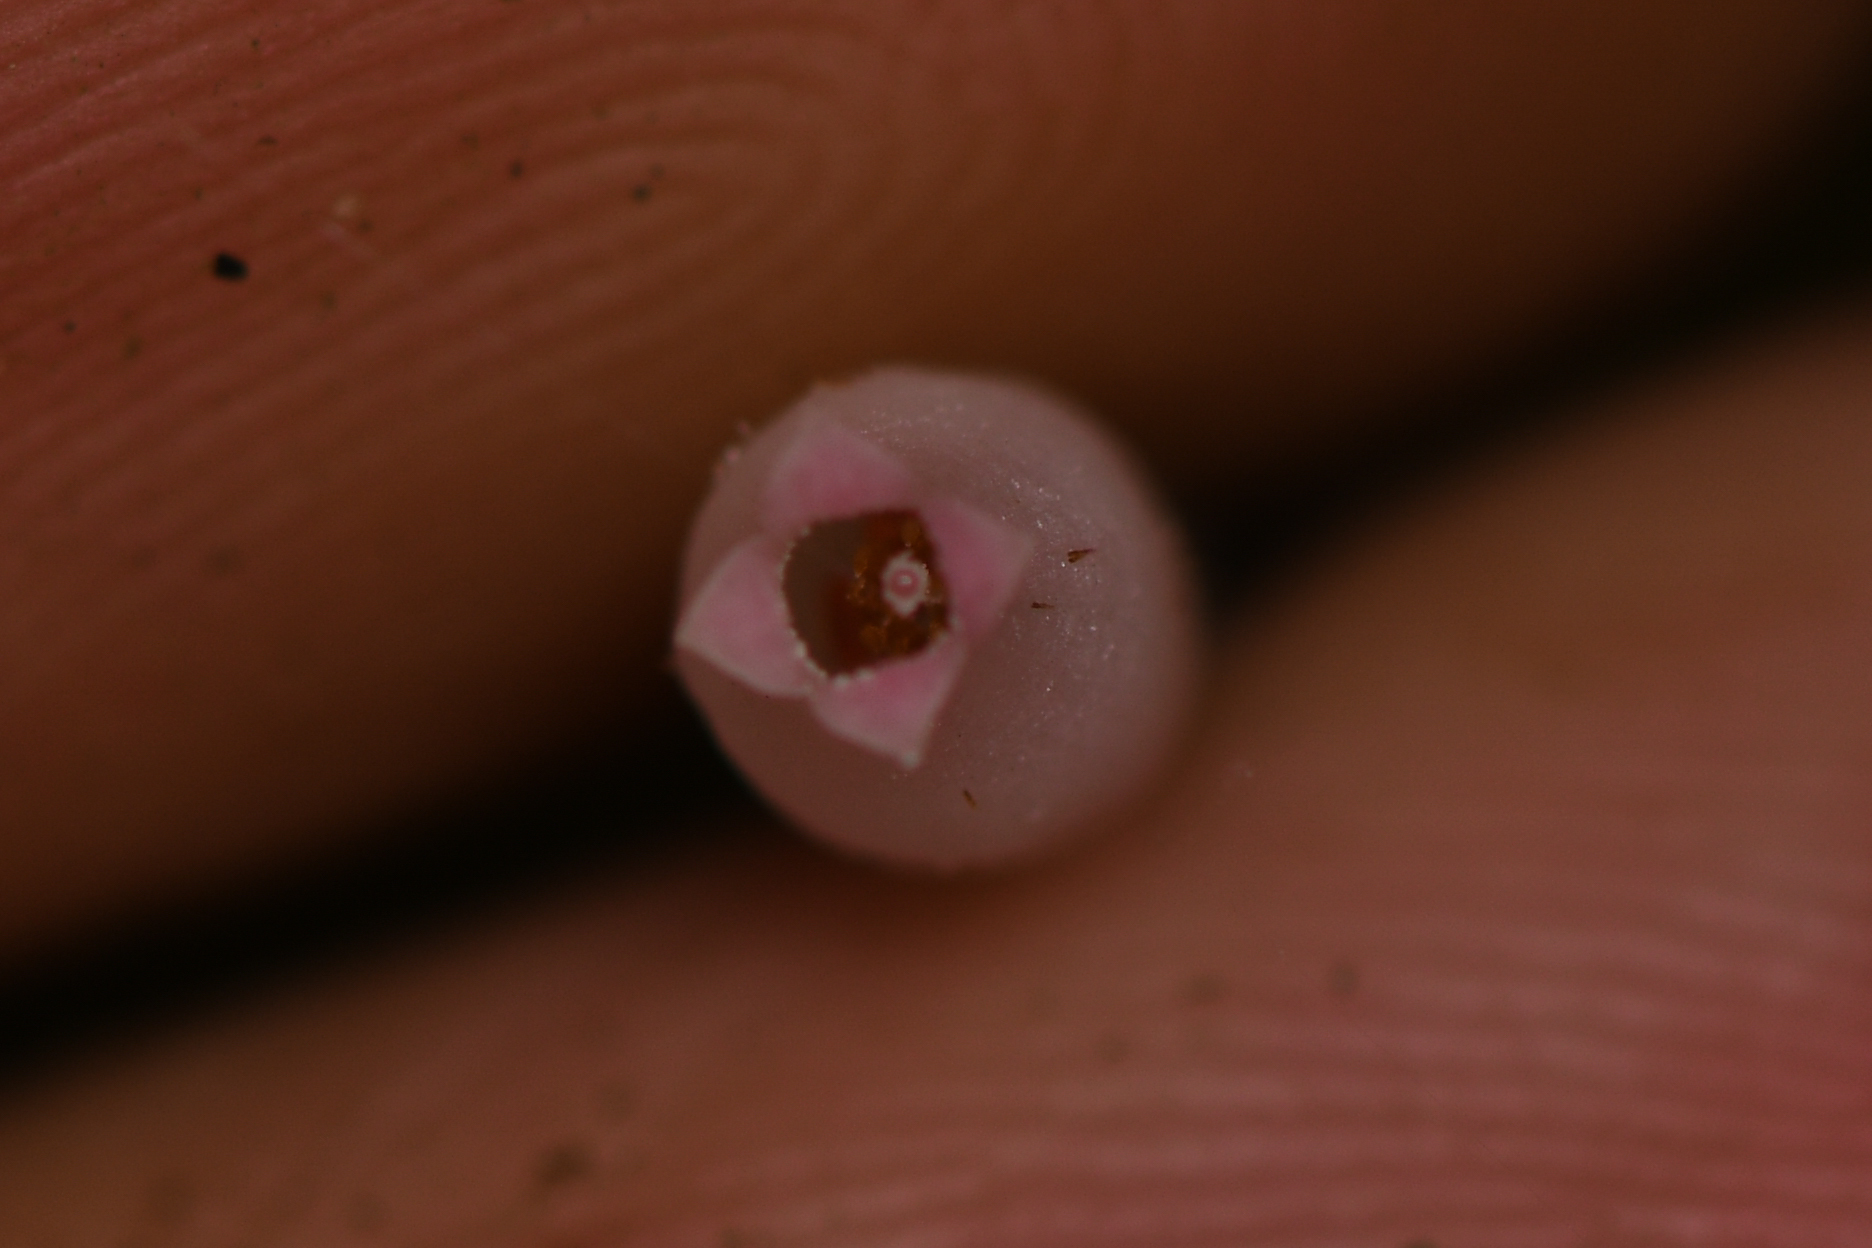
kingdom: Plantae
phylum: Tracheophyta
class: Magnoliopsida
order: Ericales
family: Ericaceae
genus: Sphyrospermum
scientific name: Sphyrospermum buxifolium
